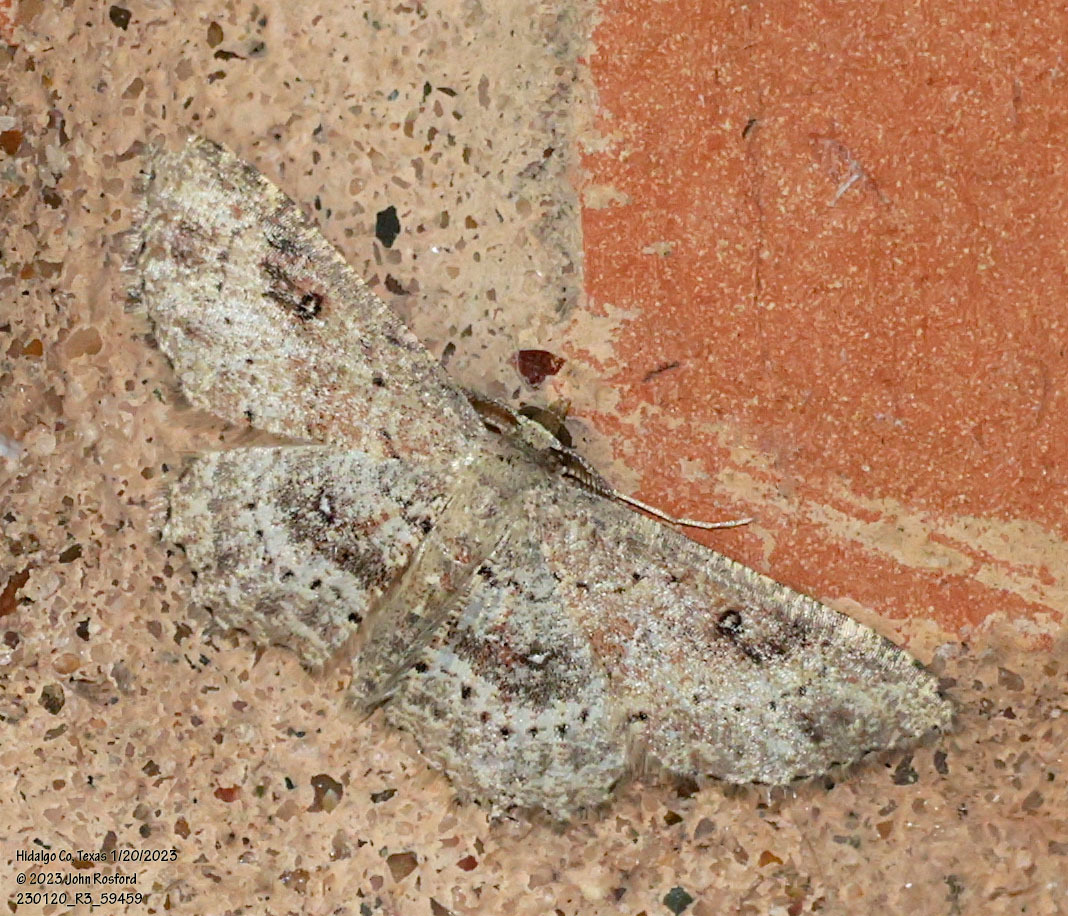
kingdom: Animalia
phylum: Arthropoda
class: Insecta
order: Lepidoptera
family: Geometridae
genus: Cyclophora
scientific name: Cyclophora nanaria
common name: Cankerworm
